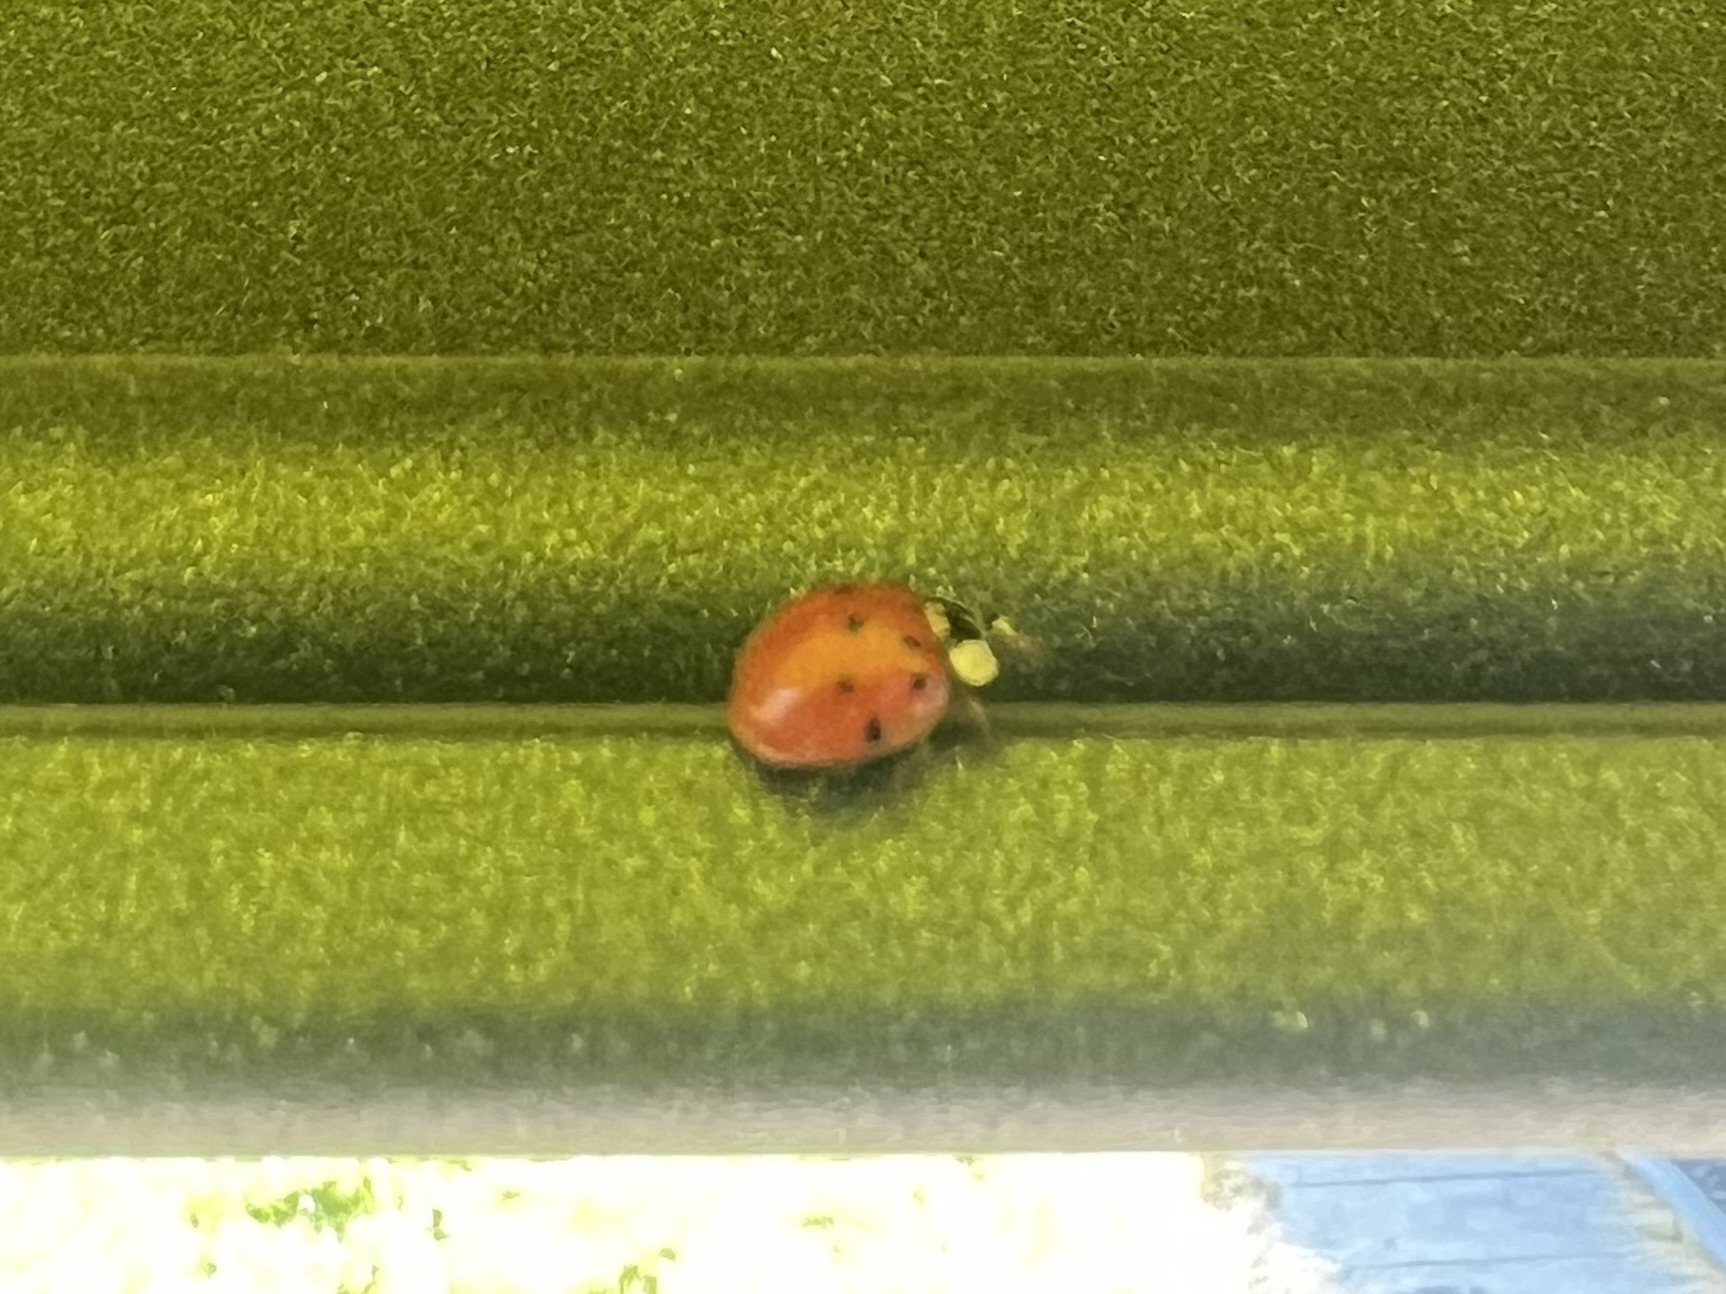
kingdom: Animalia
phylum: Arthropoda
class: Insecta
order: Coleoptera
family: Coccinellidae
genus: Harmonia
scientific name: Harmonia axyridis
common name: Harlequin ladybird
